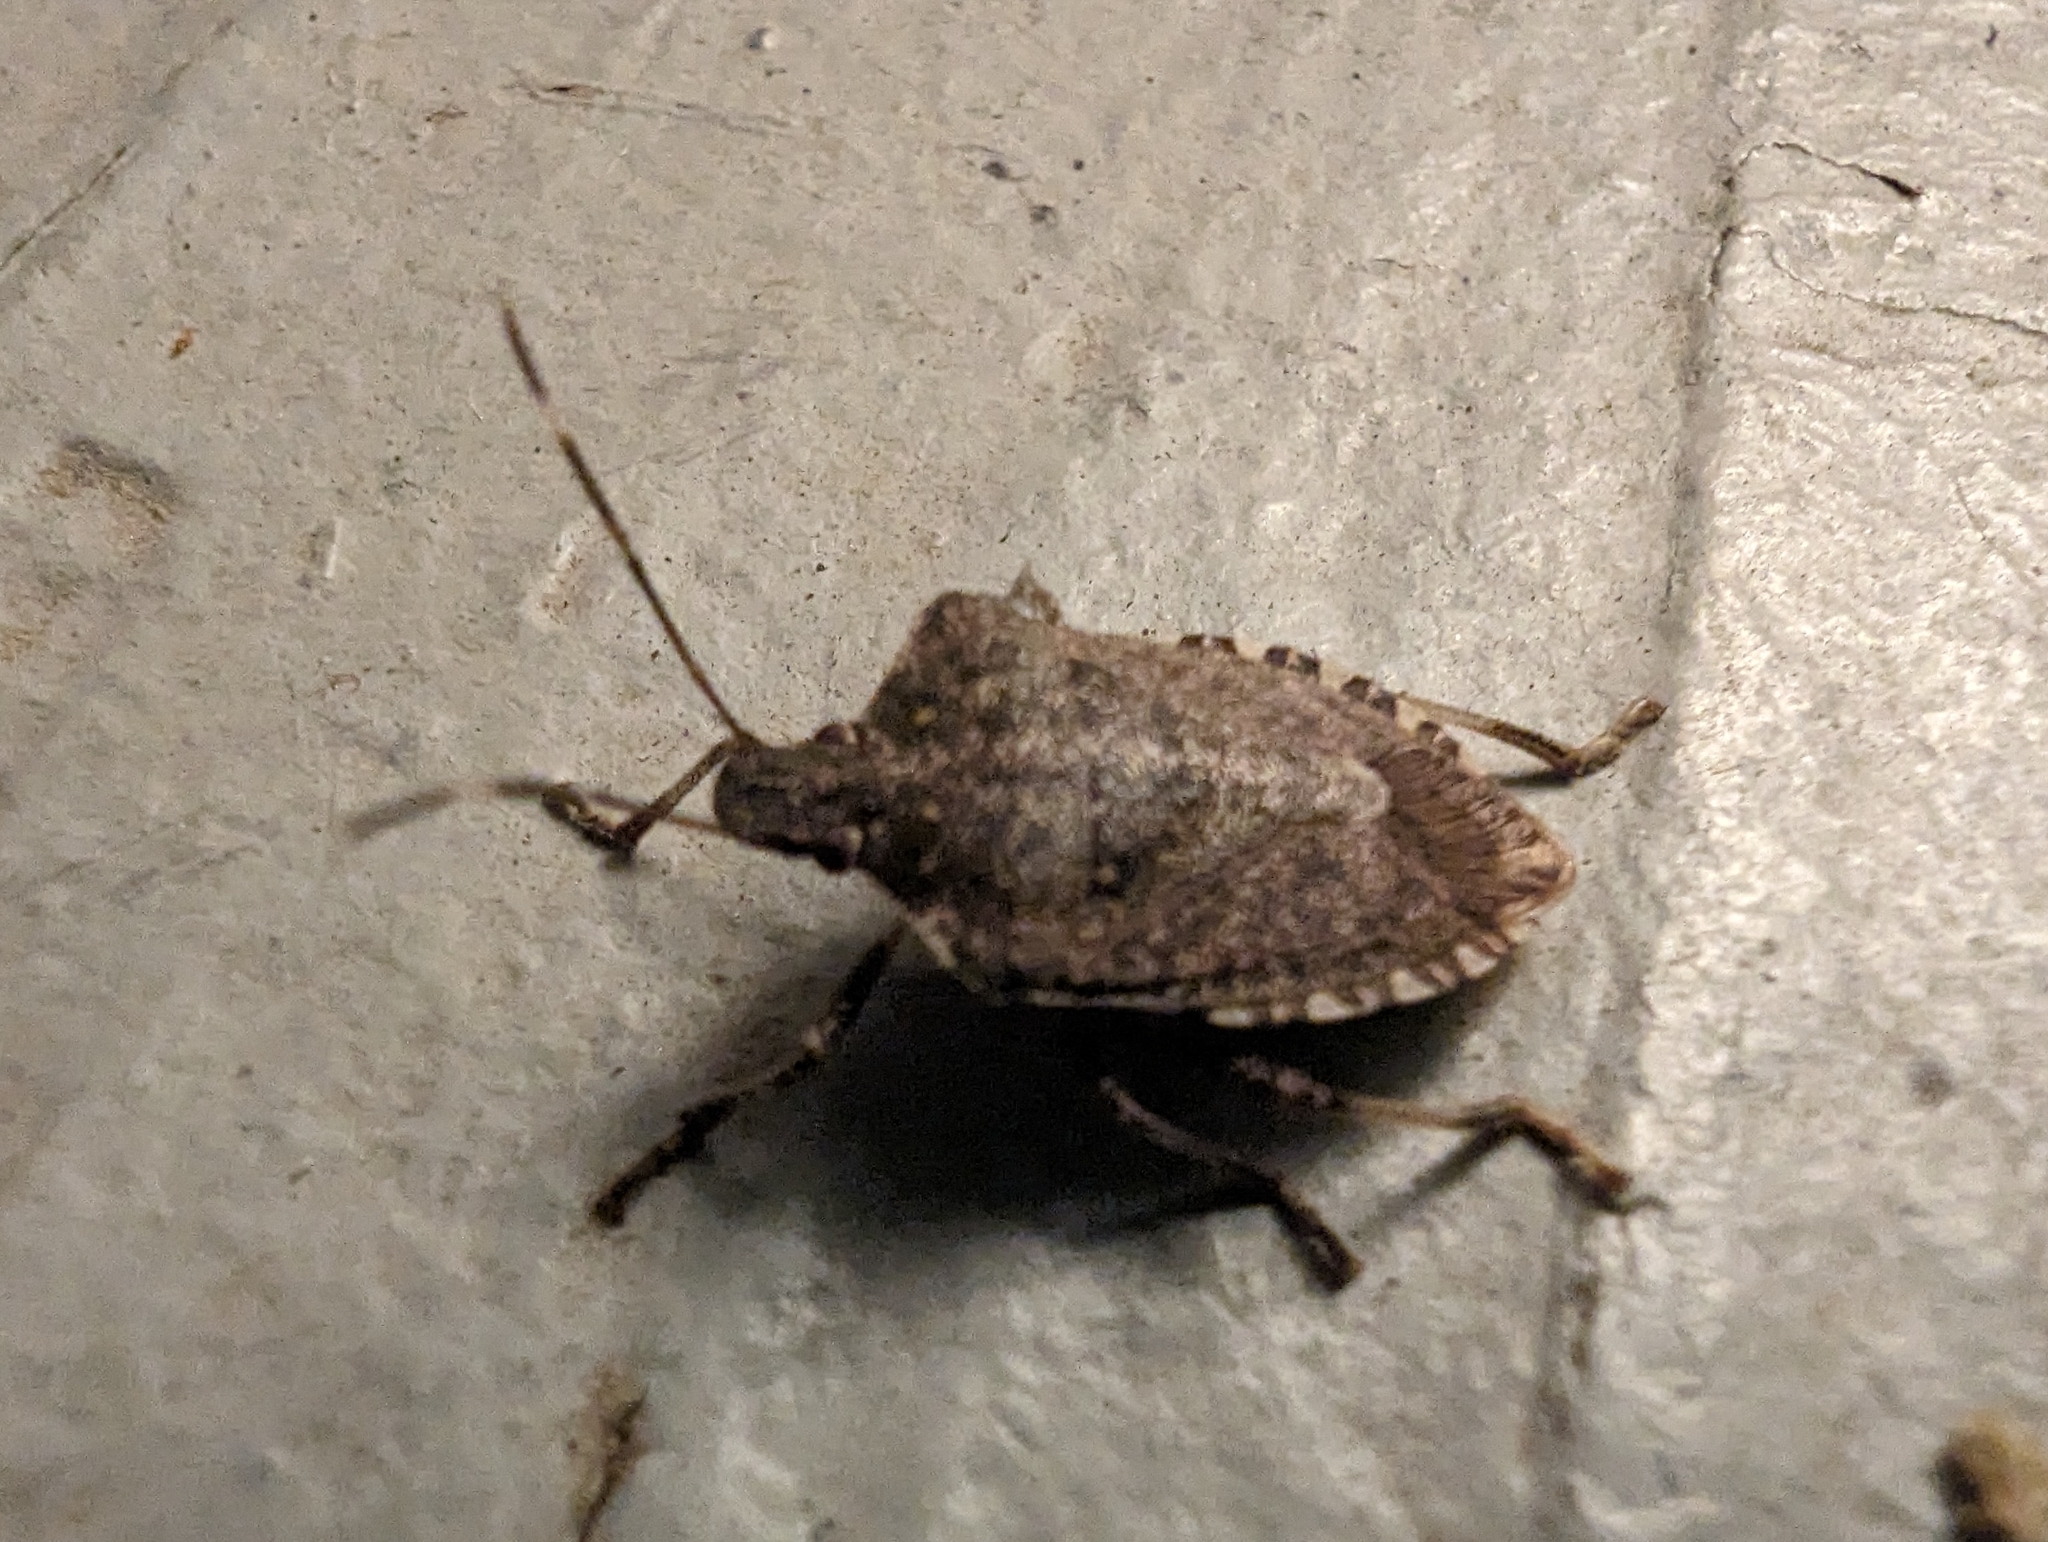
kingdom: Animalia
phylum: Arthropoda
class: Insecta
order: Hemiptera
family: Pentatomidae
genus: Halyomorpha
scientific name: Halyomorpha halys
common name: Brown marmorated stink bug
